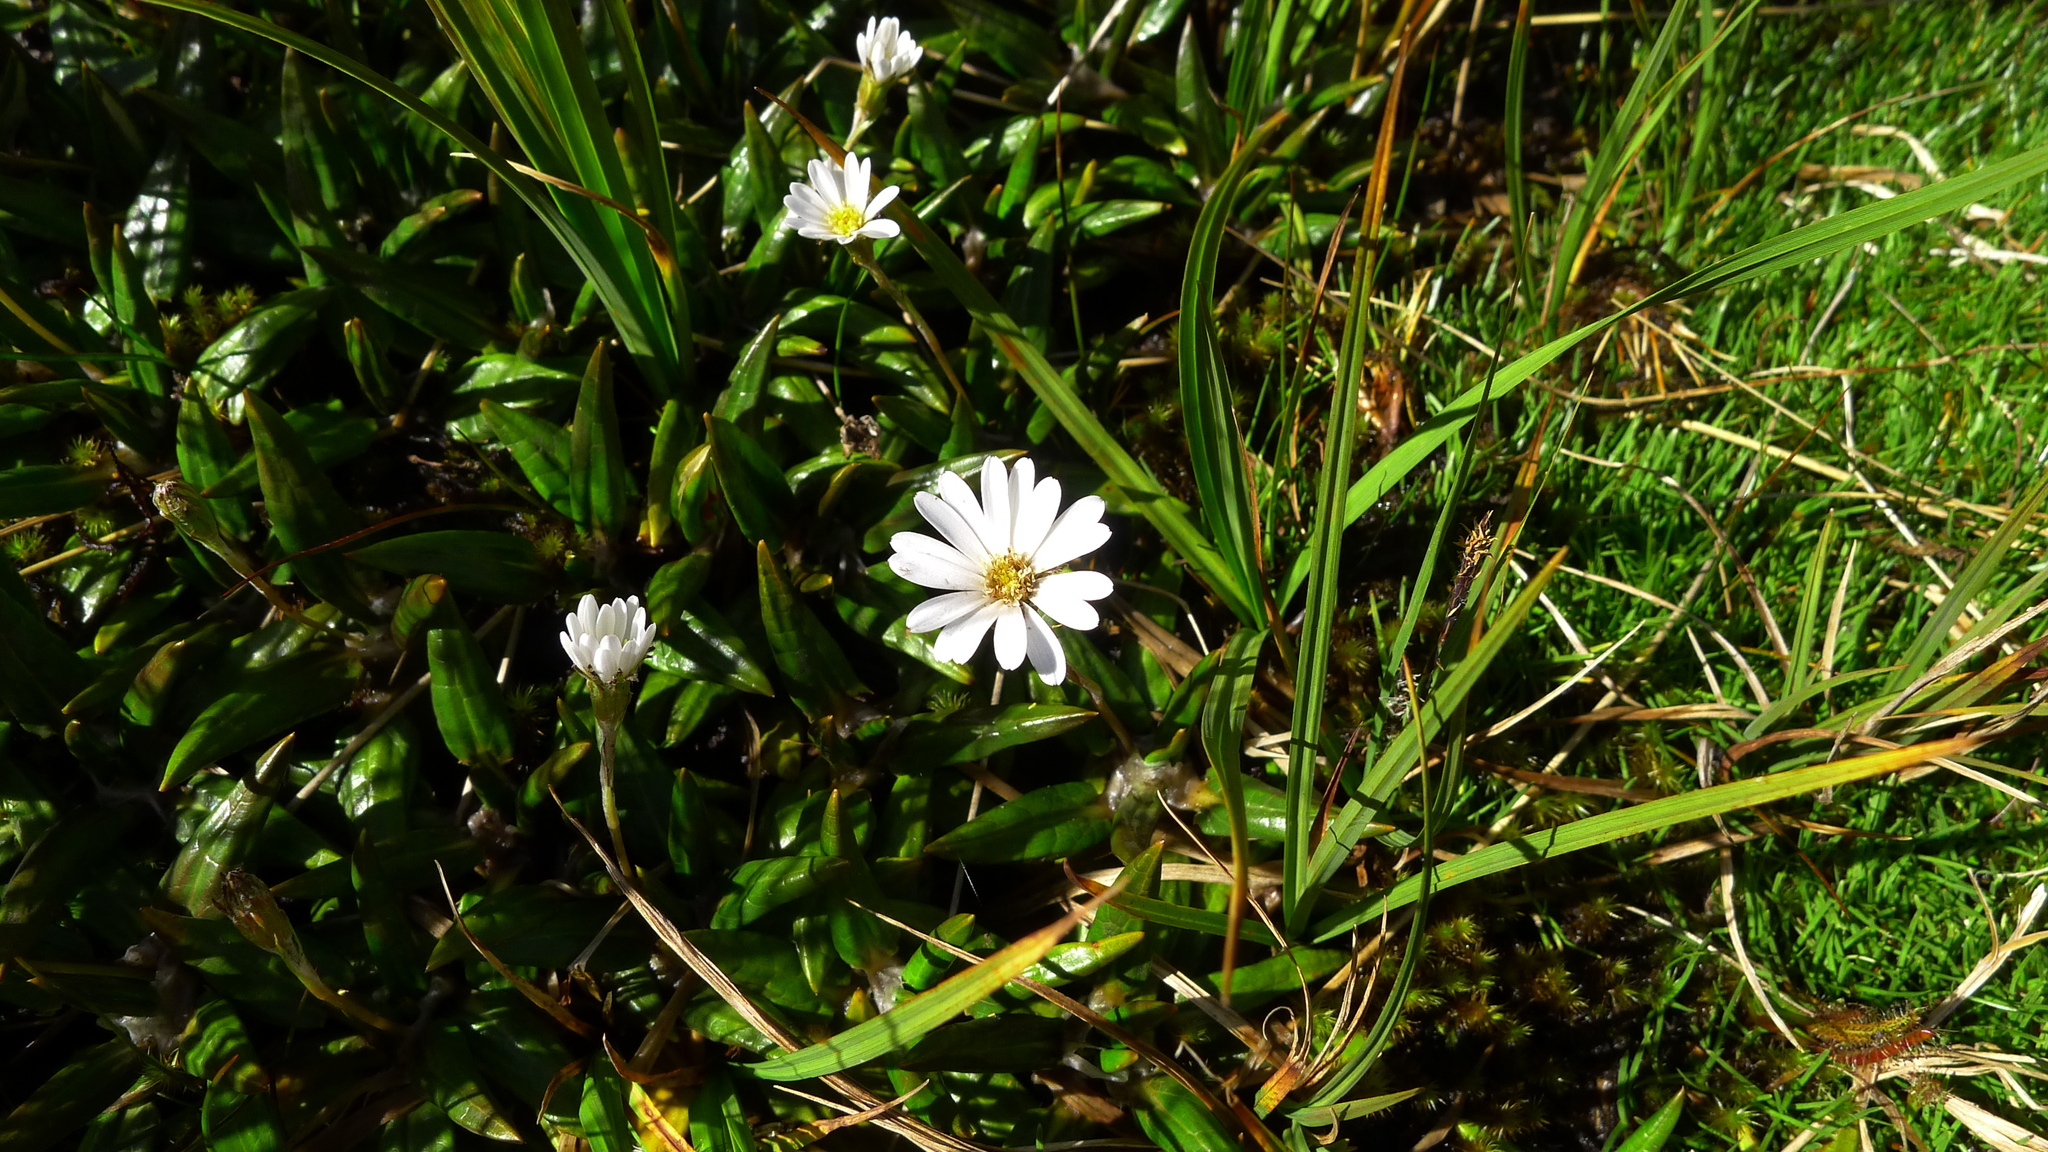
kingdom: Plantae
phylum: Tracheophyta
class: Magnoliopsida
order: Asterales
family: Asteraceae
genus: Celmisia
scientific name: Celmisia parva
